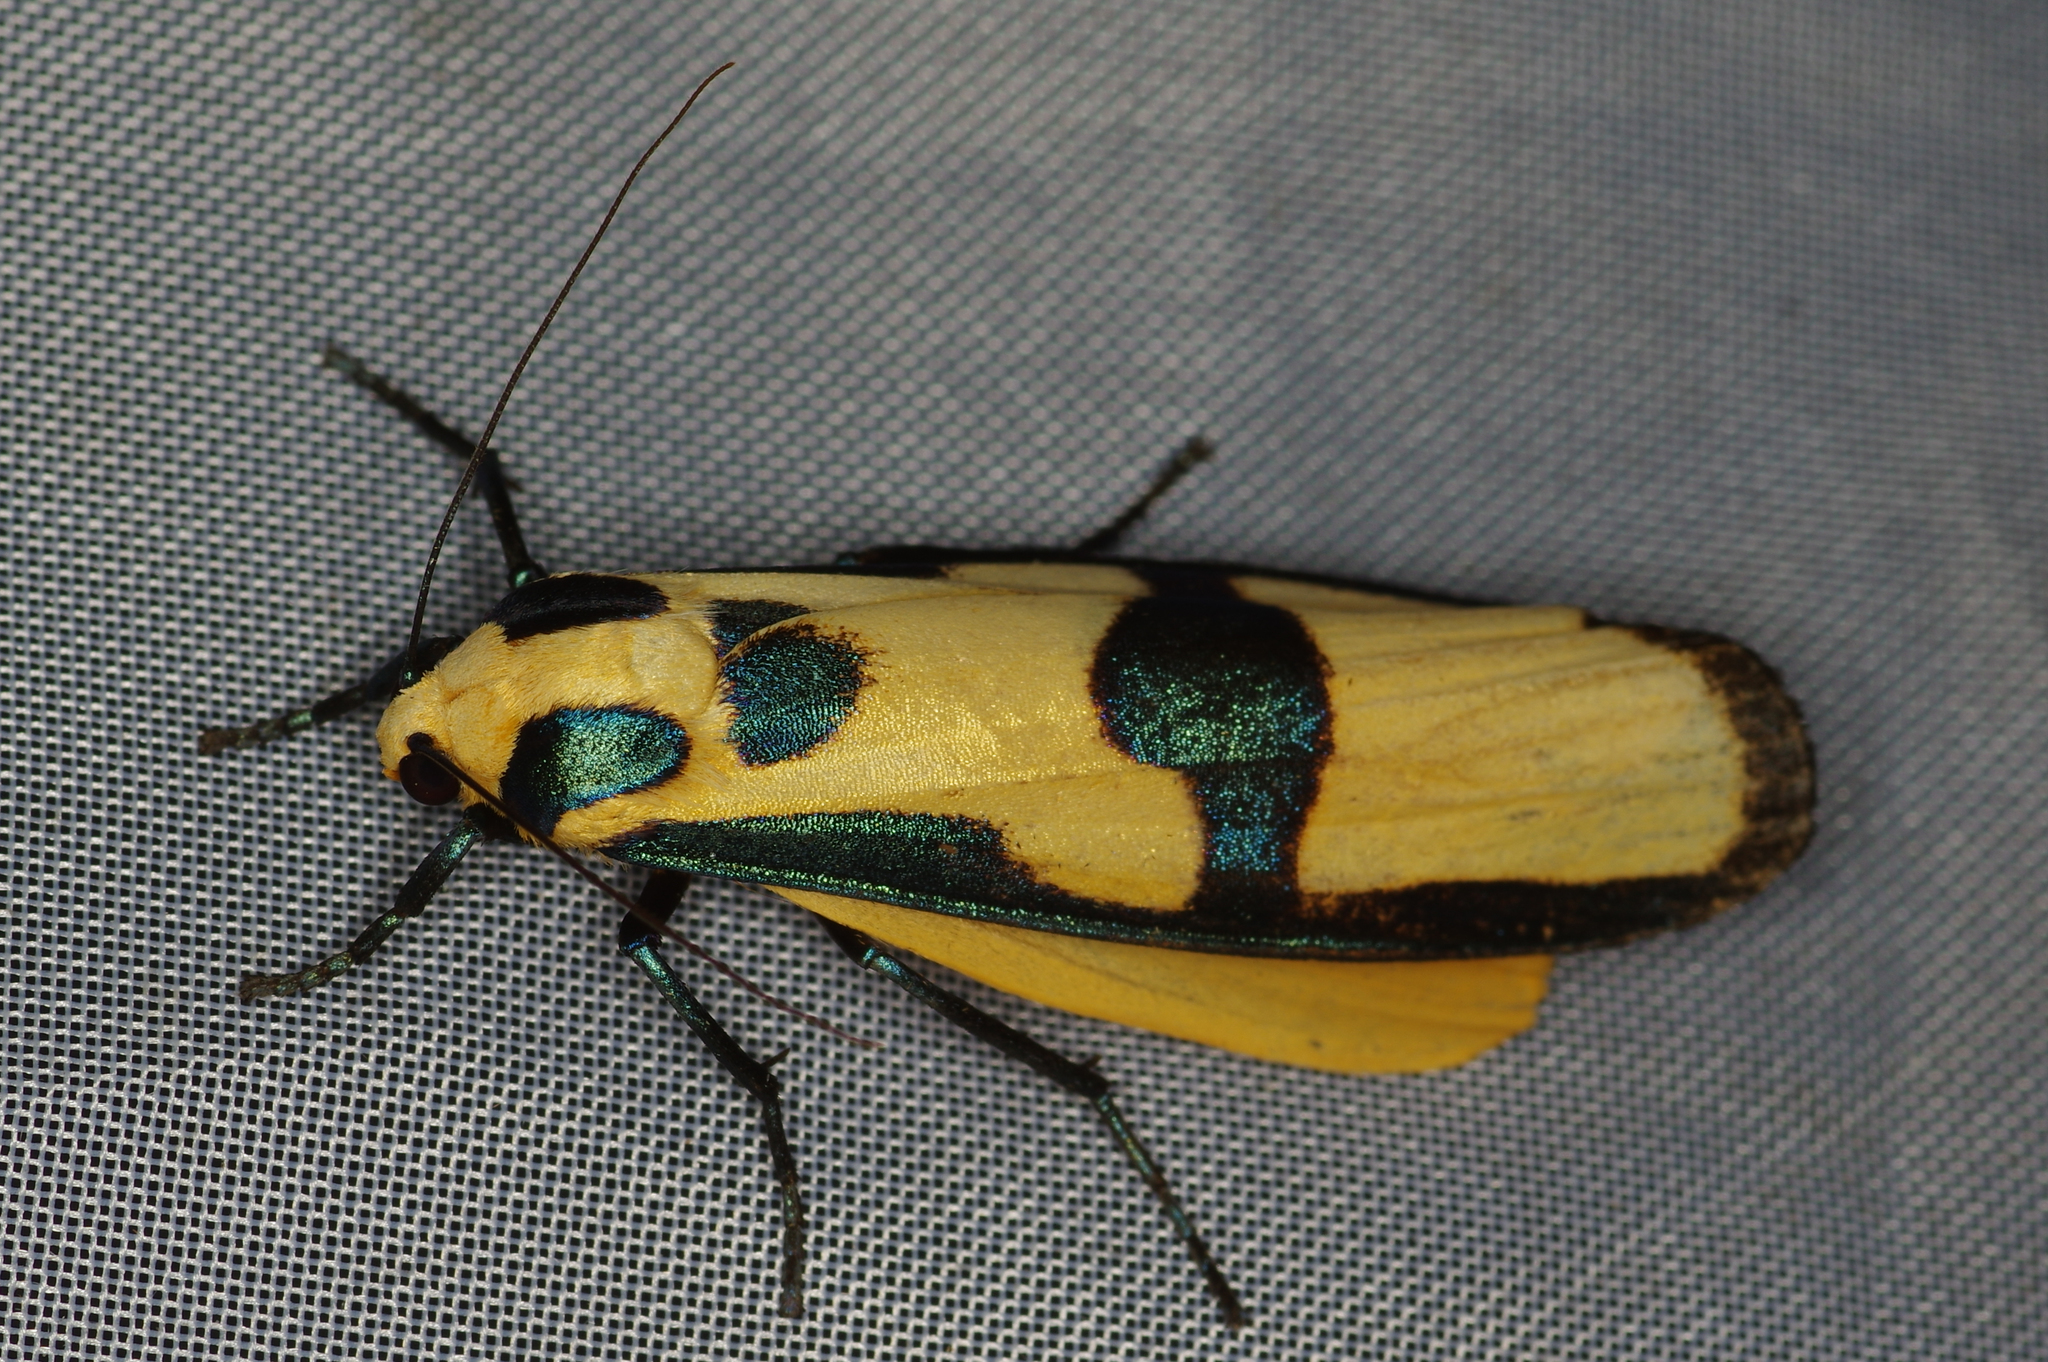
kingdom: Animalia
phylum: Arthropoda
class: Insecta
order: Lepidoptera
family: Erebidae
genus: Chrysaeglia
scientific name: Chrysaeglia magnifica
